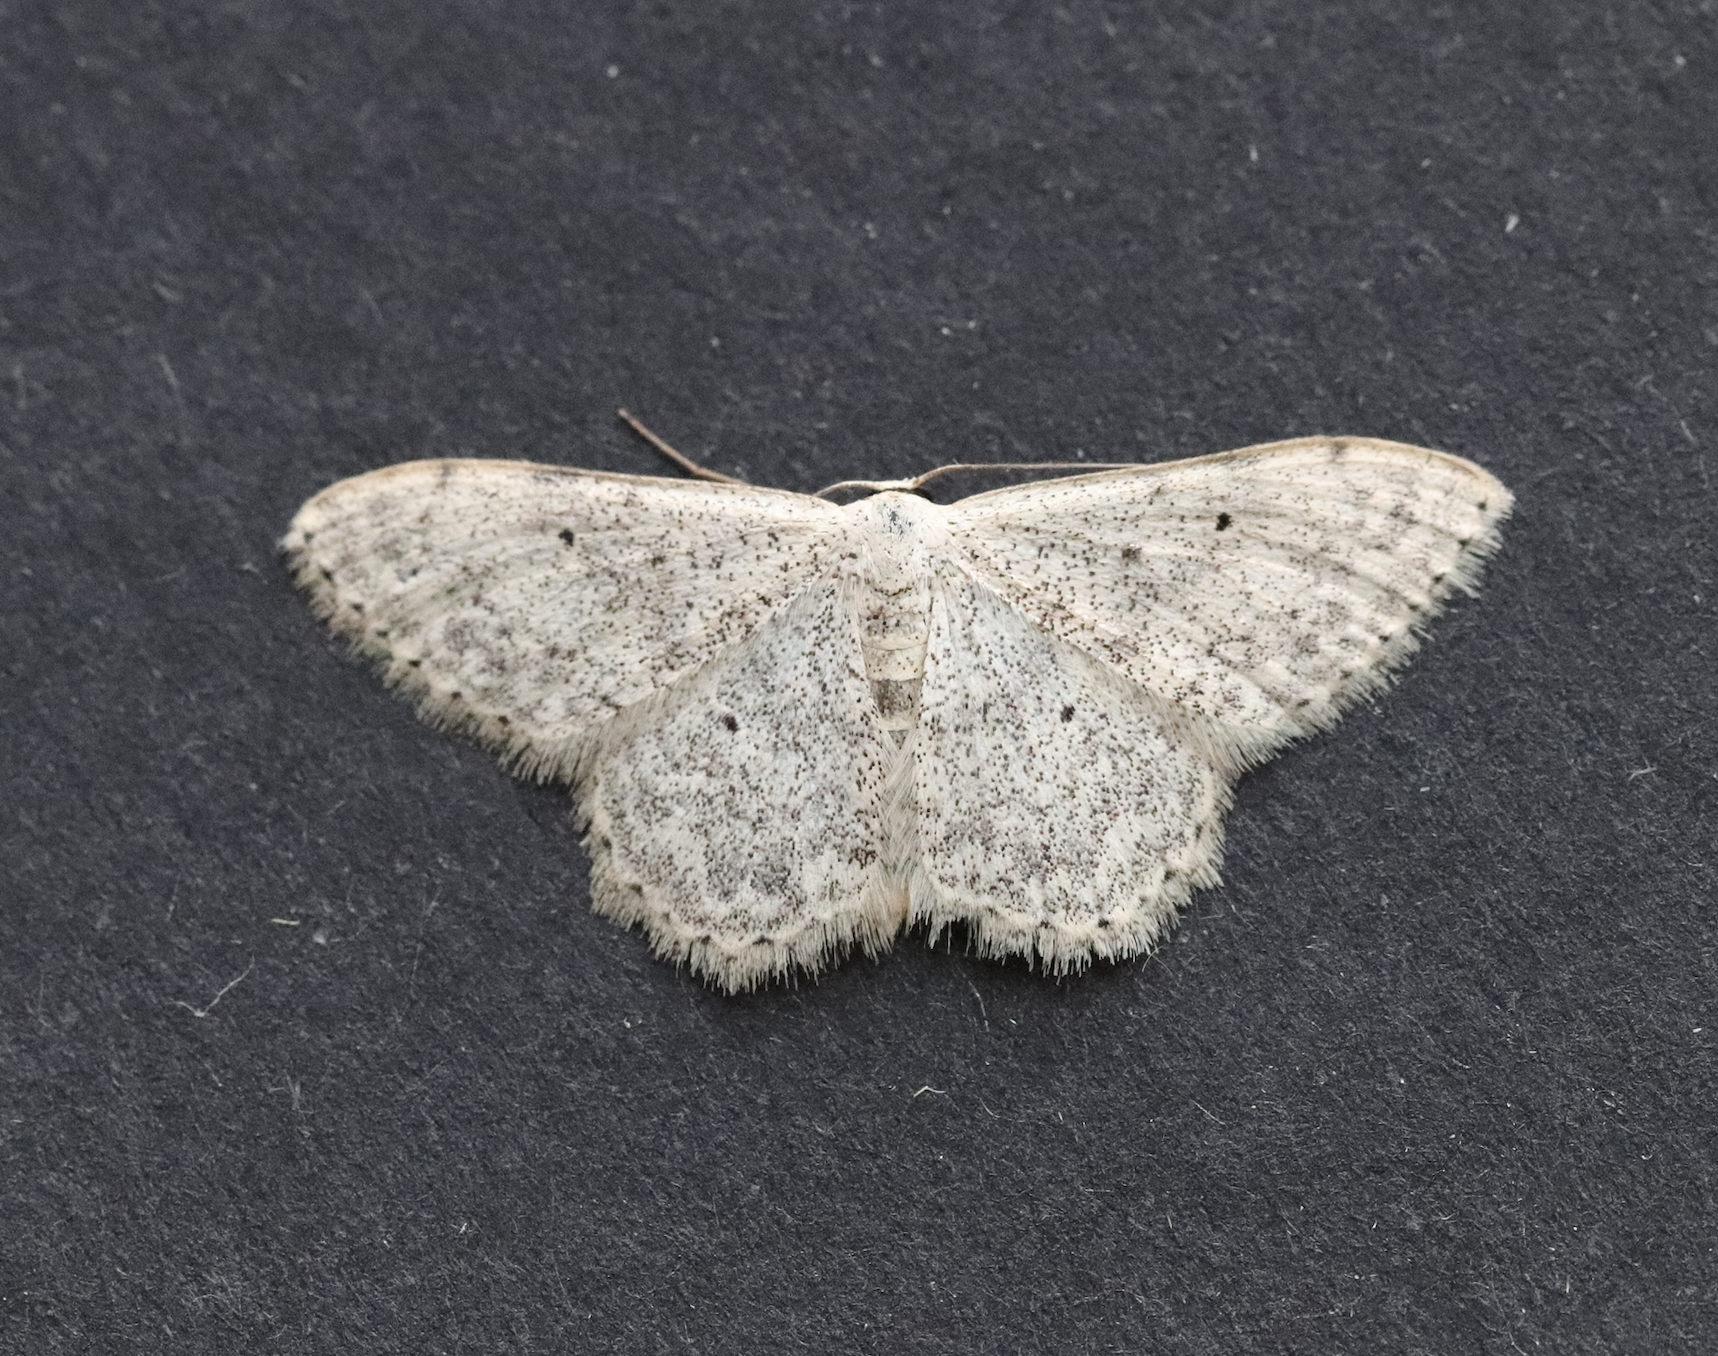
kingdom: Animalia
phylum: Arthropoda
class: Insecta
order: Lepidoptera
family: Geometridae
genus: Scopula
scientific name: Scopula marginepunctata
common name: Mullein wave
